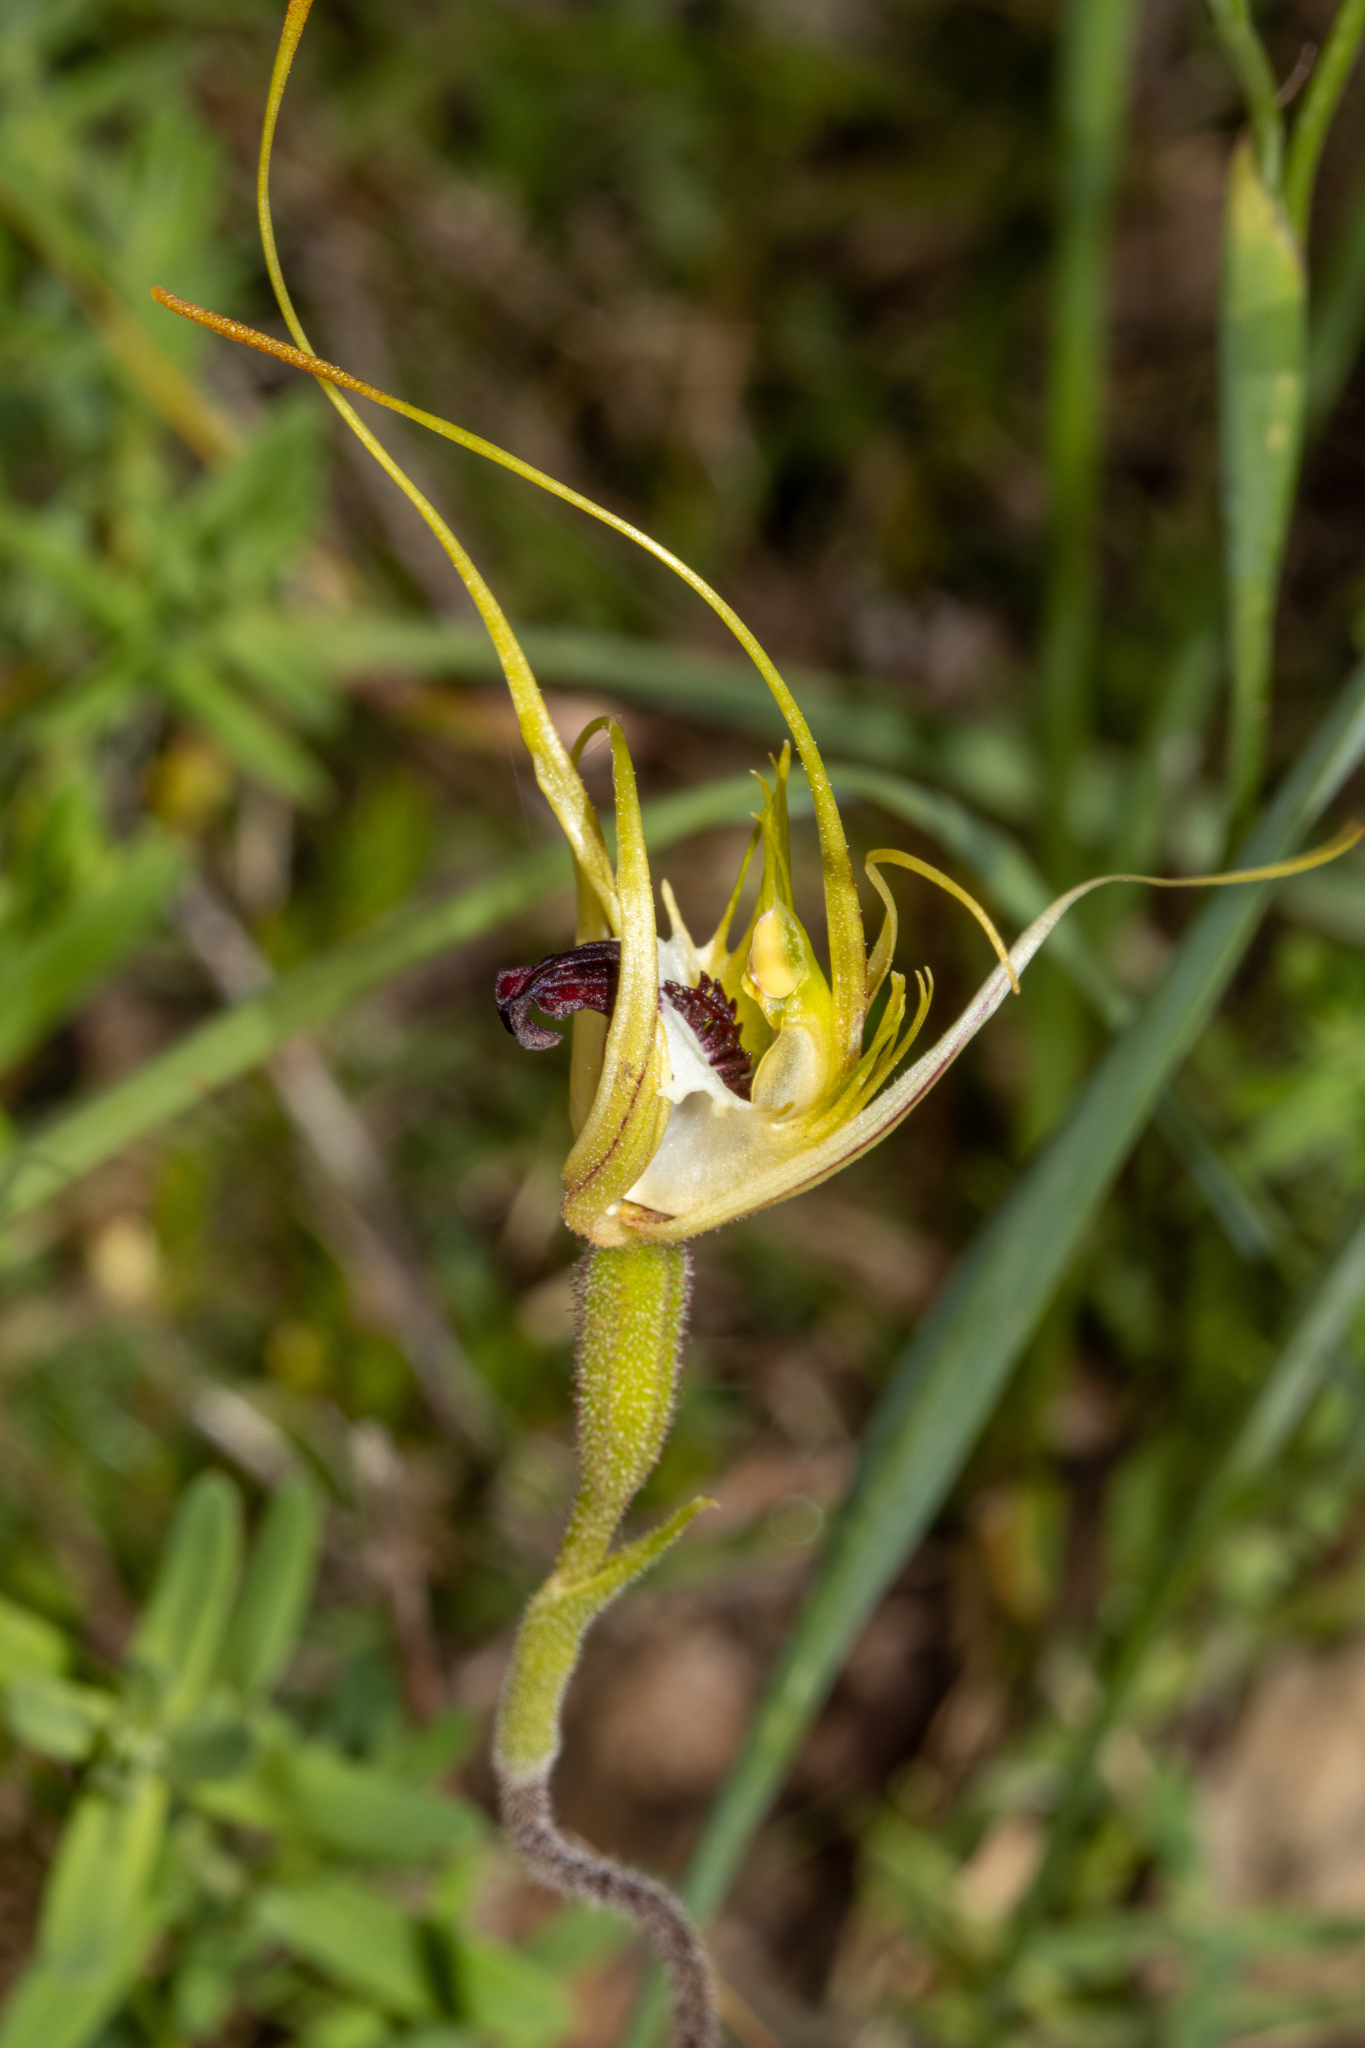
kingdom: Plantae
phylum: Tracheophyta
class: Liliopsida
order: Asparagales
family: Orchidaceae
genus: Caladenia
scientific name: Caladenia tentaculata
